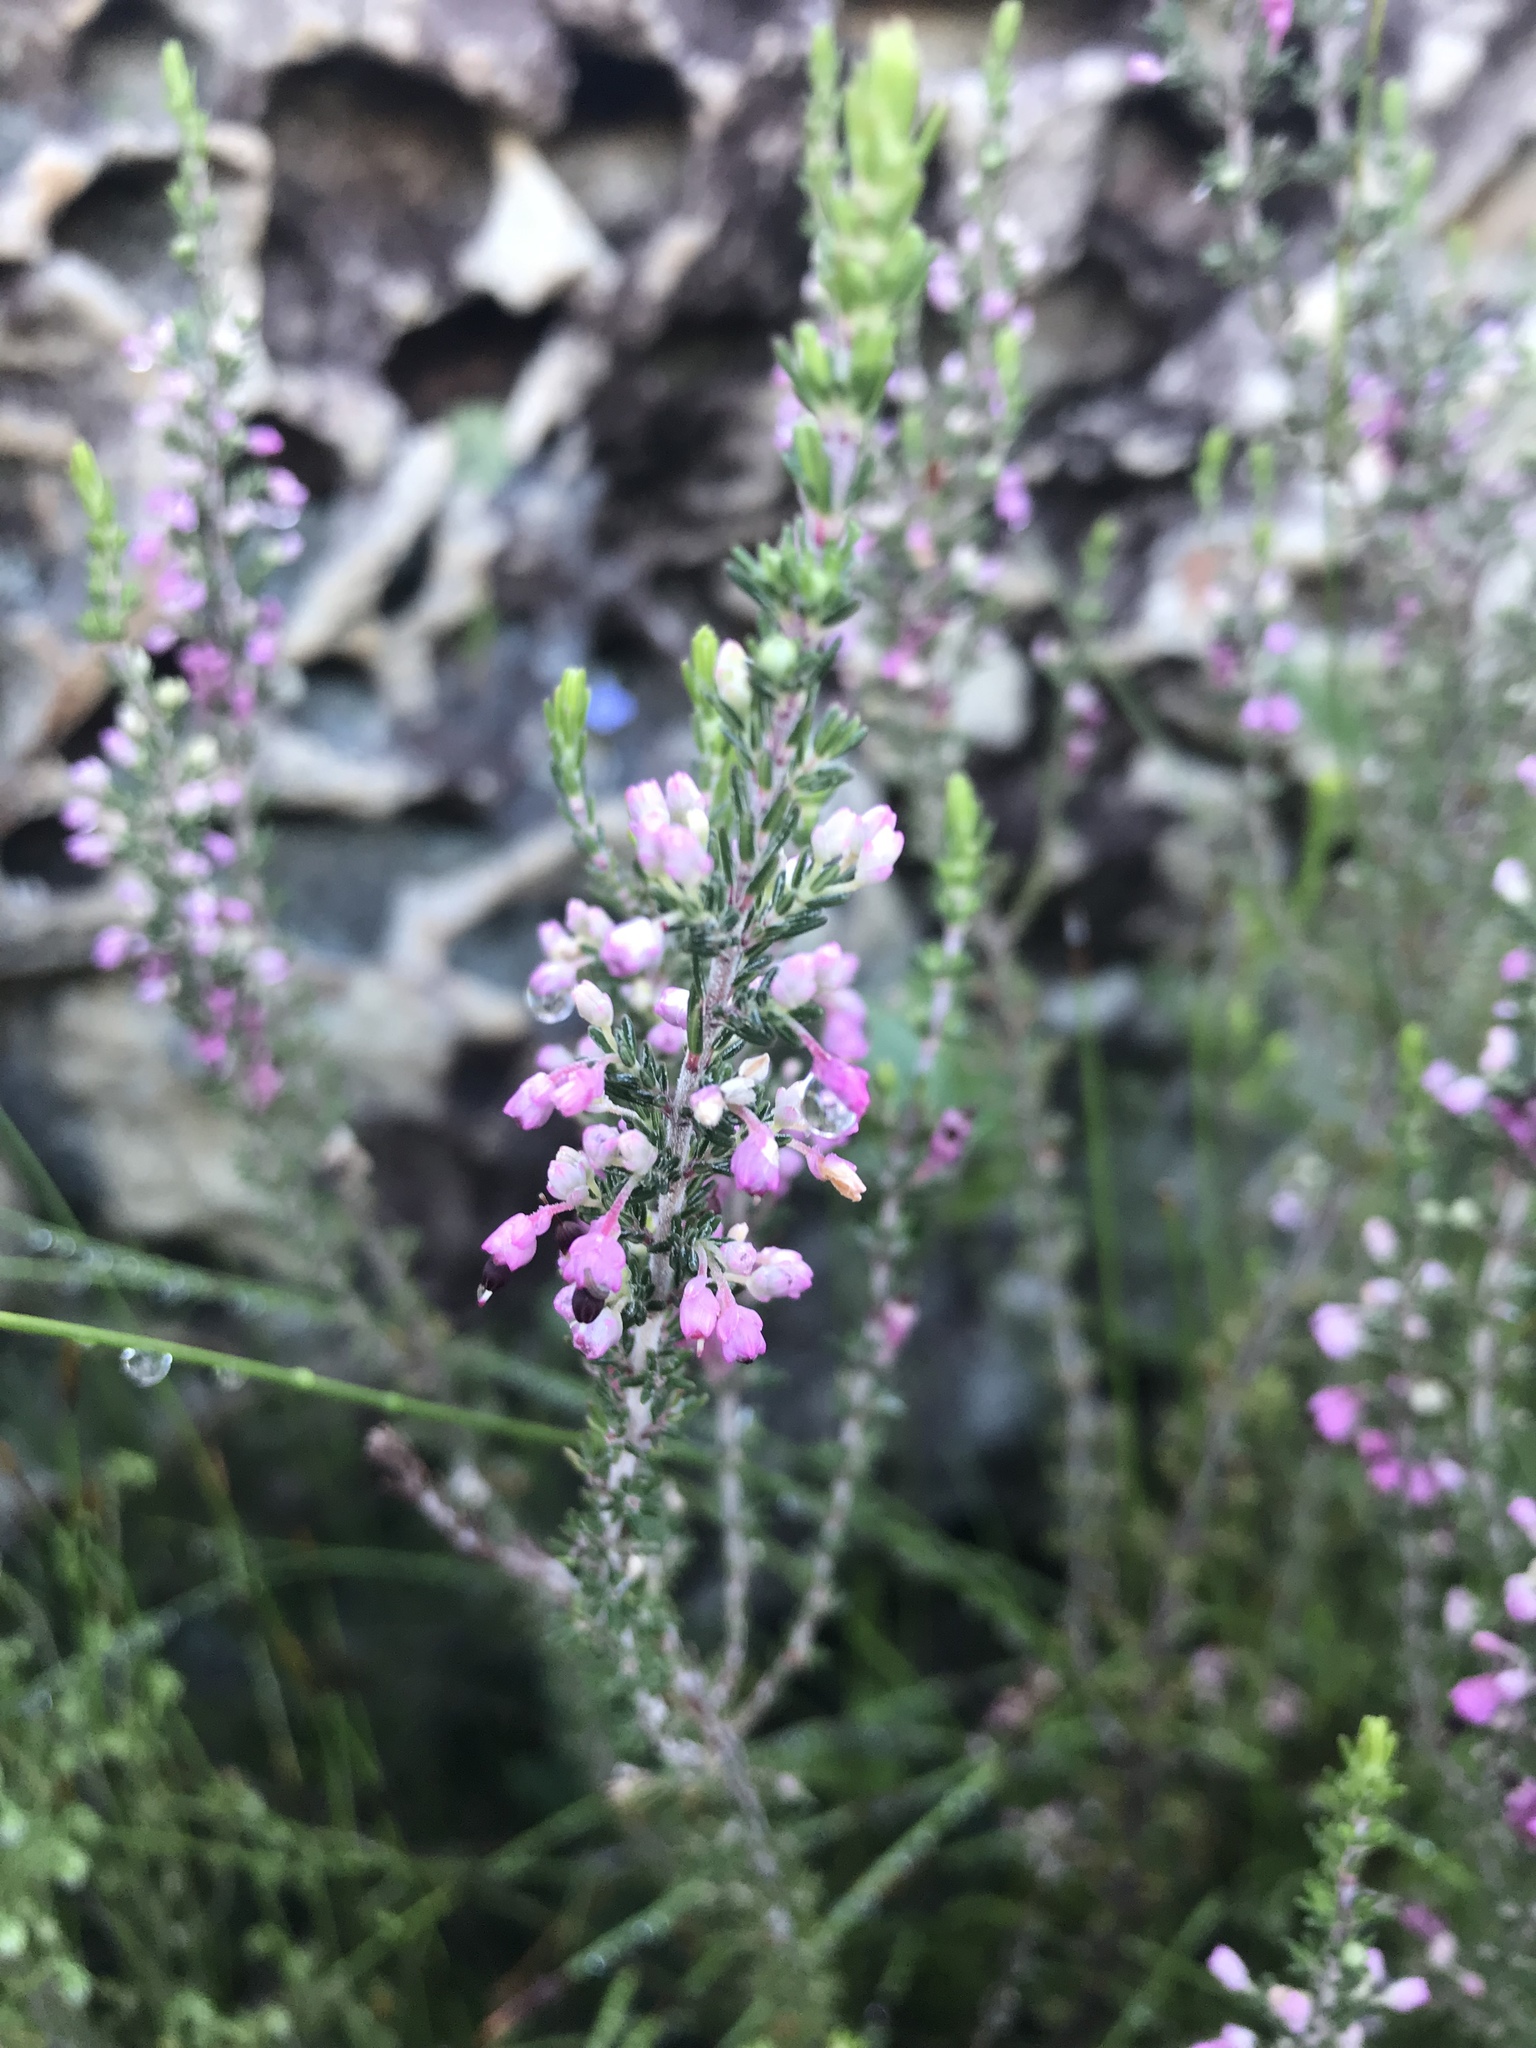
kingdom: Plantae
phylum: Tracheophyta
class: Magnoliopsida
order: Ericales
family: Ericaceae
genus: Erica
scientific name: Erica placentiflora
